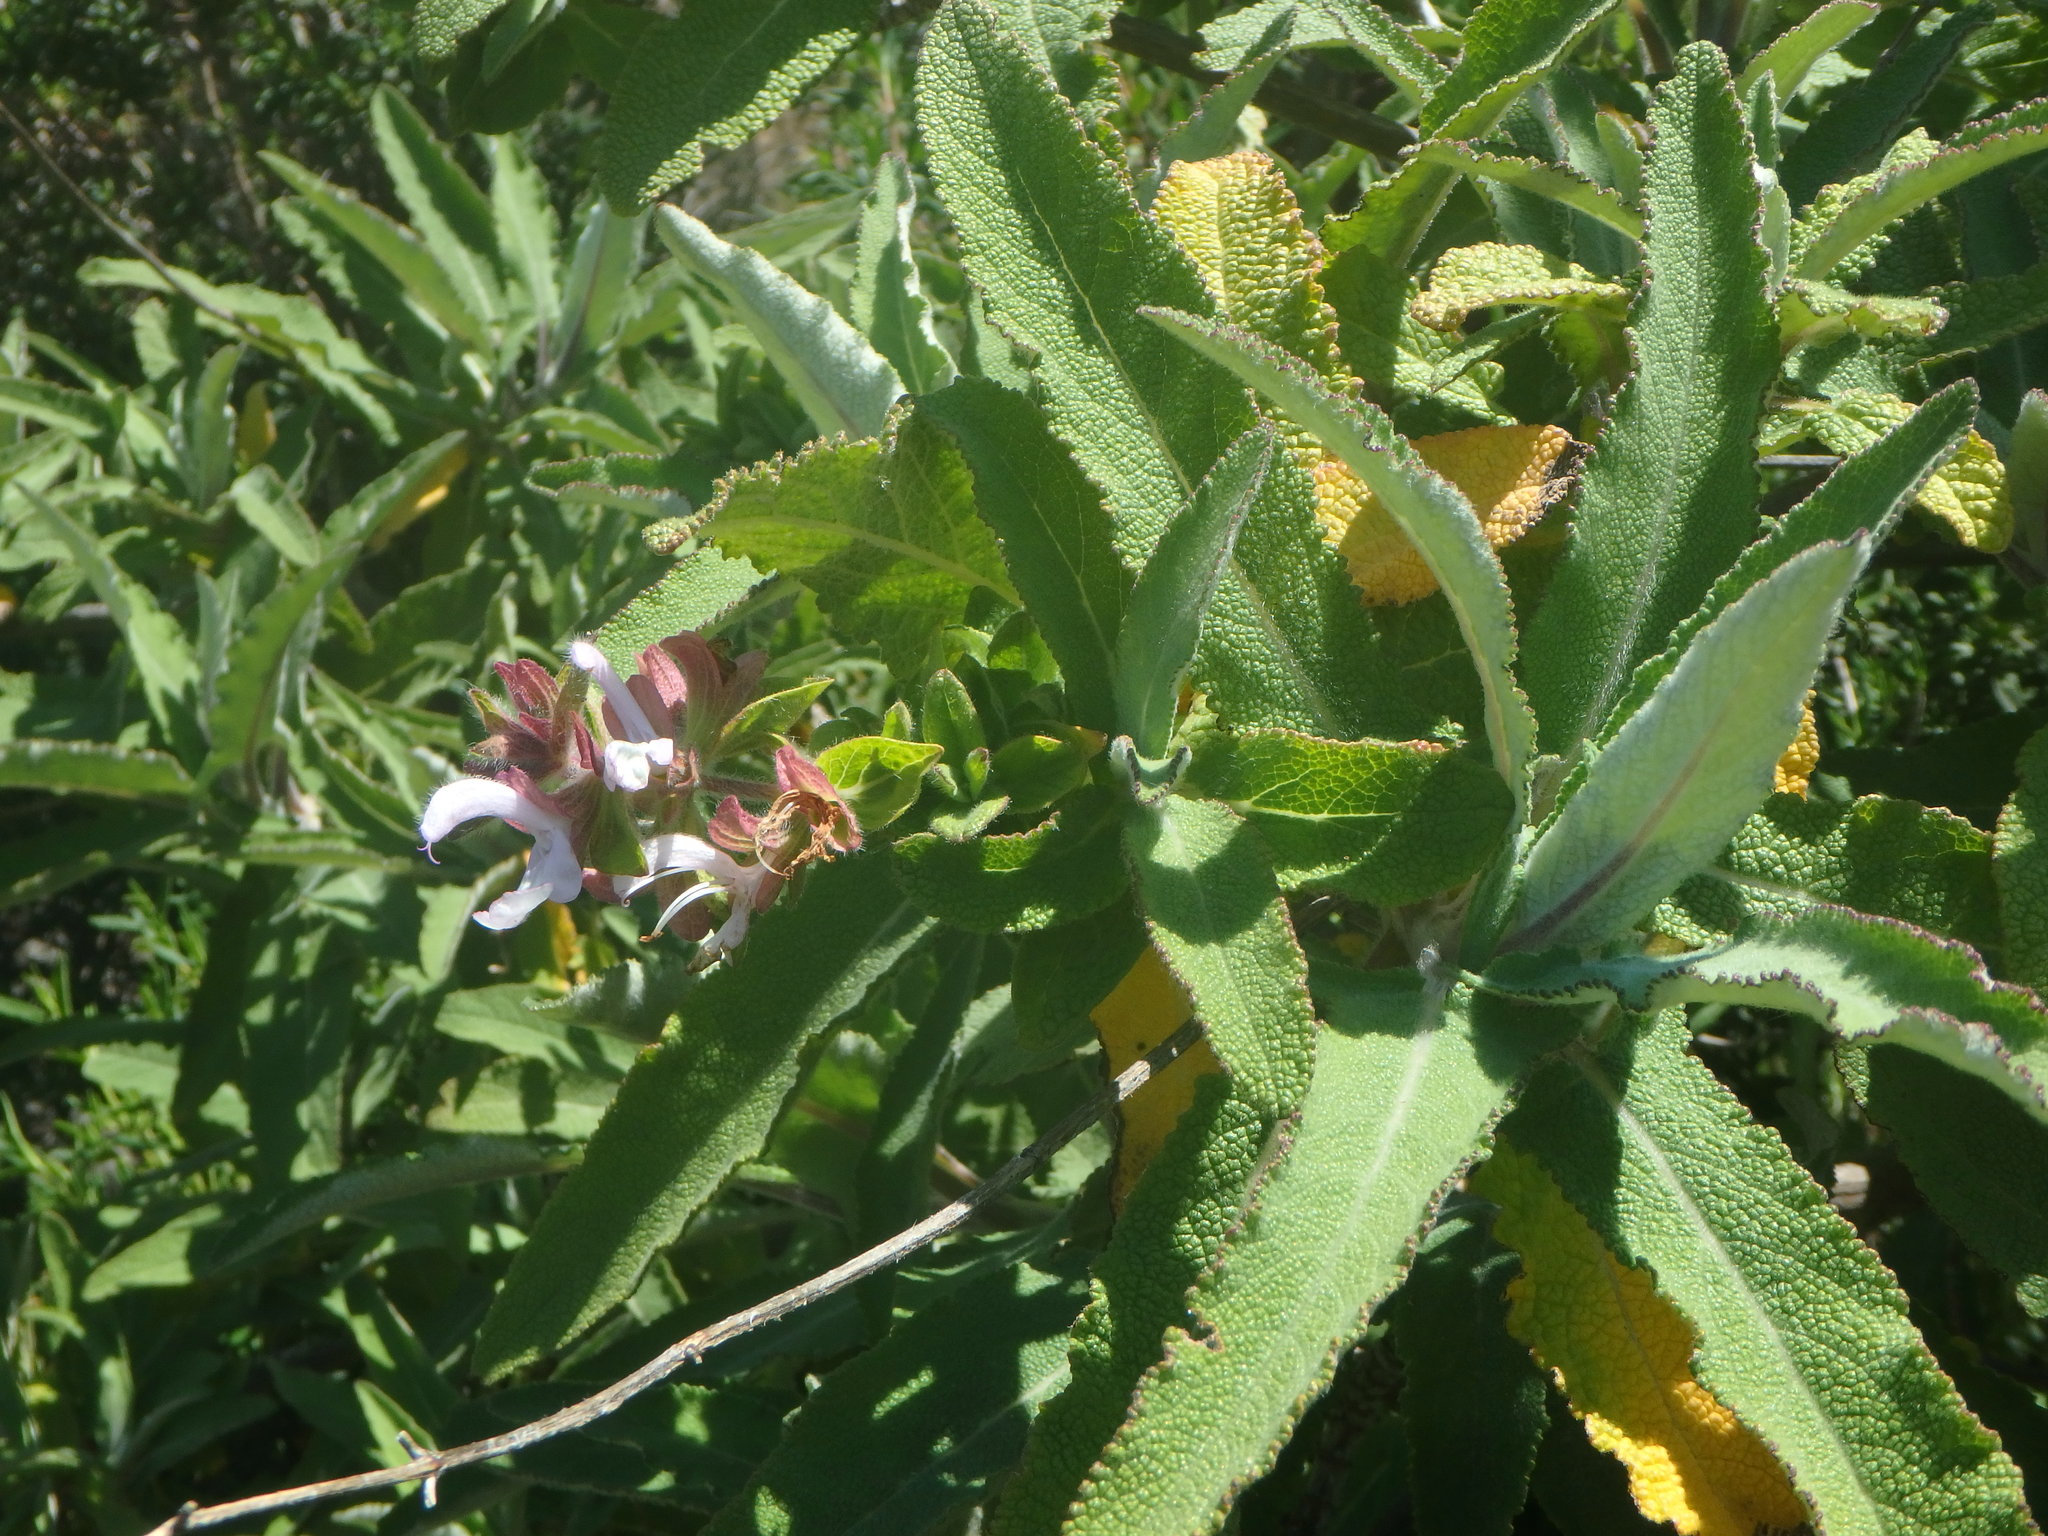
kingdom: Plantae
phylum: Tracheophyta
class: Magnoliopsida
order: Lamiales
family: Lamiaceae
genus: Salvia
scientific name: Salvia canariensis
